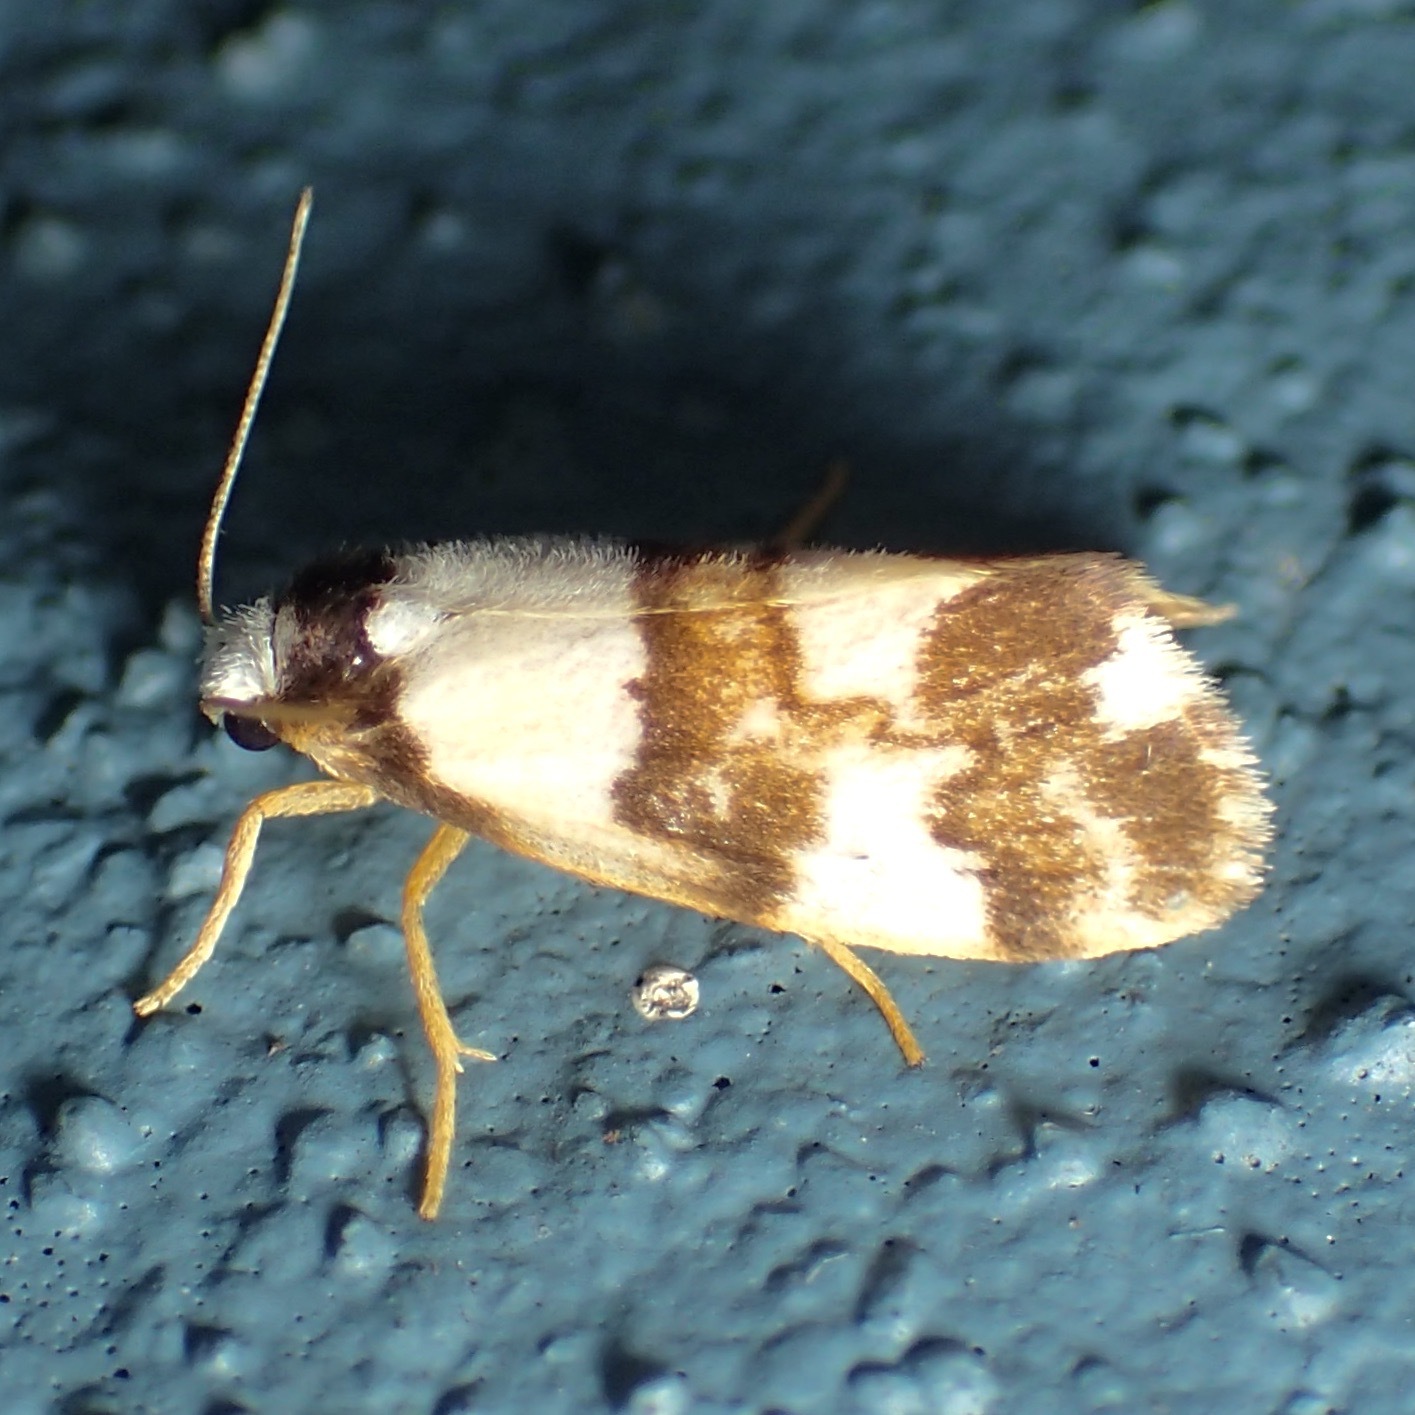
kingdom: Animalia
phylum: Arthropoda
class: Insecta
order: Lepidoptera
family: Erebidae
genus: Philenora
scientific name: Philenora aspectalella
